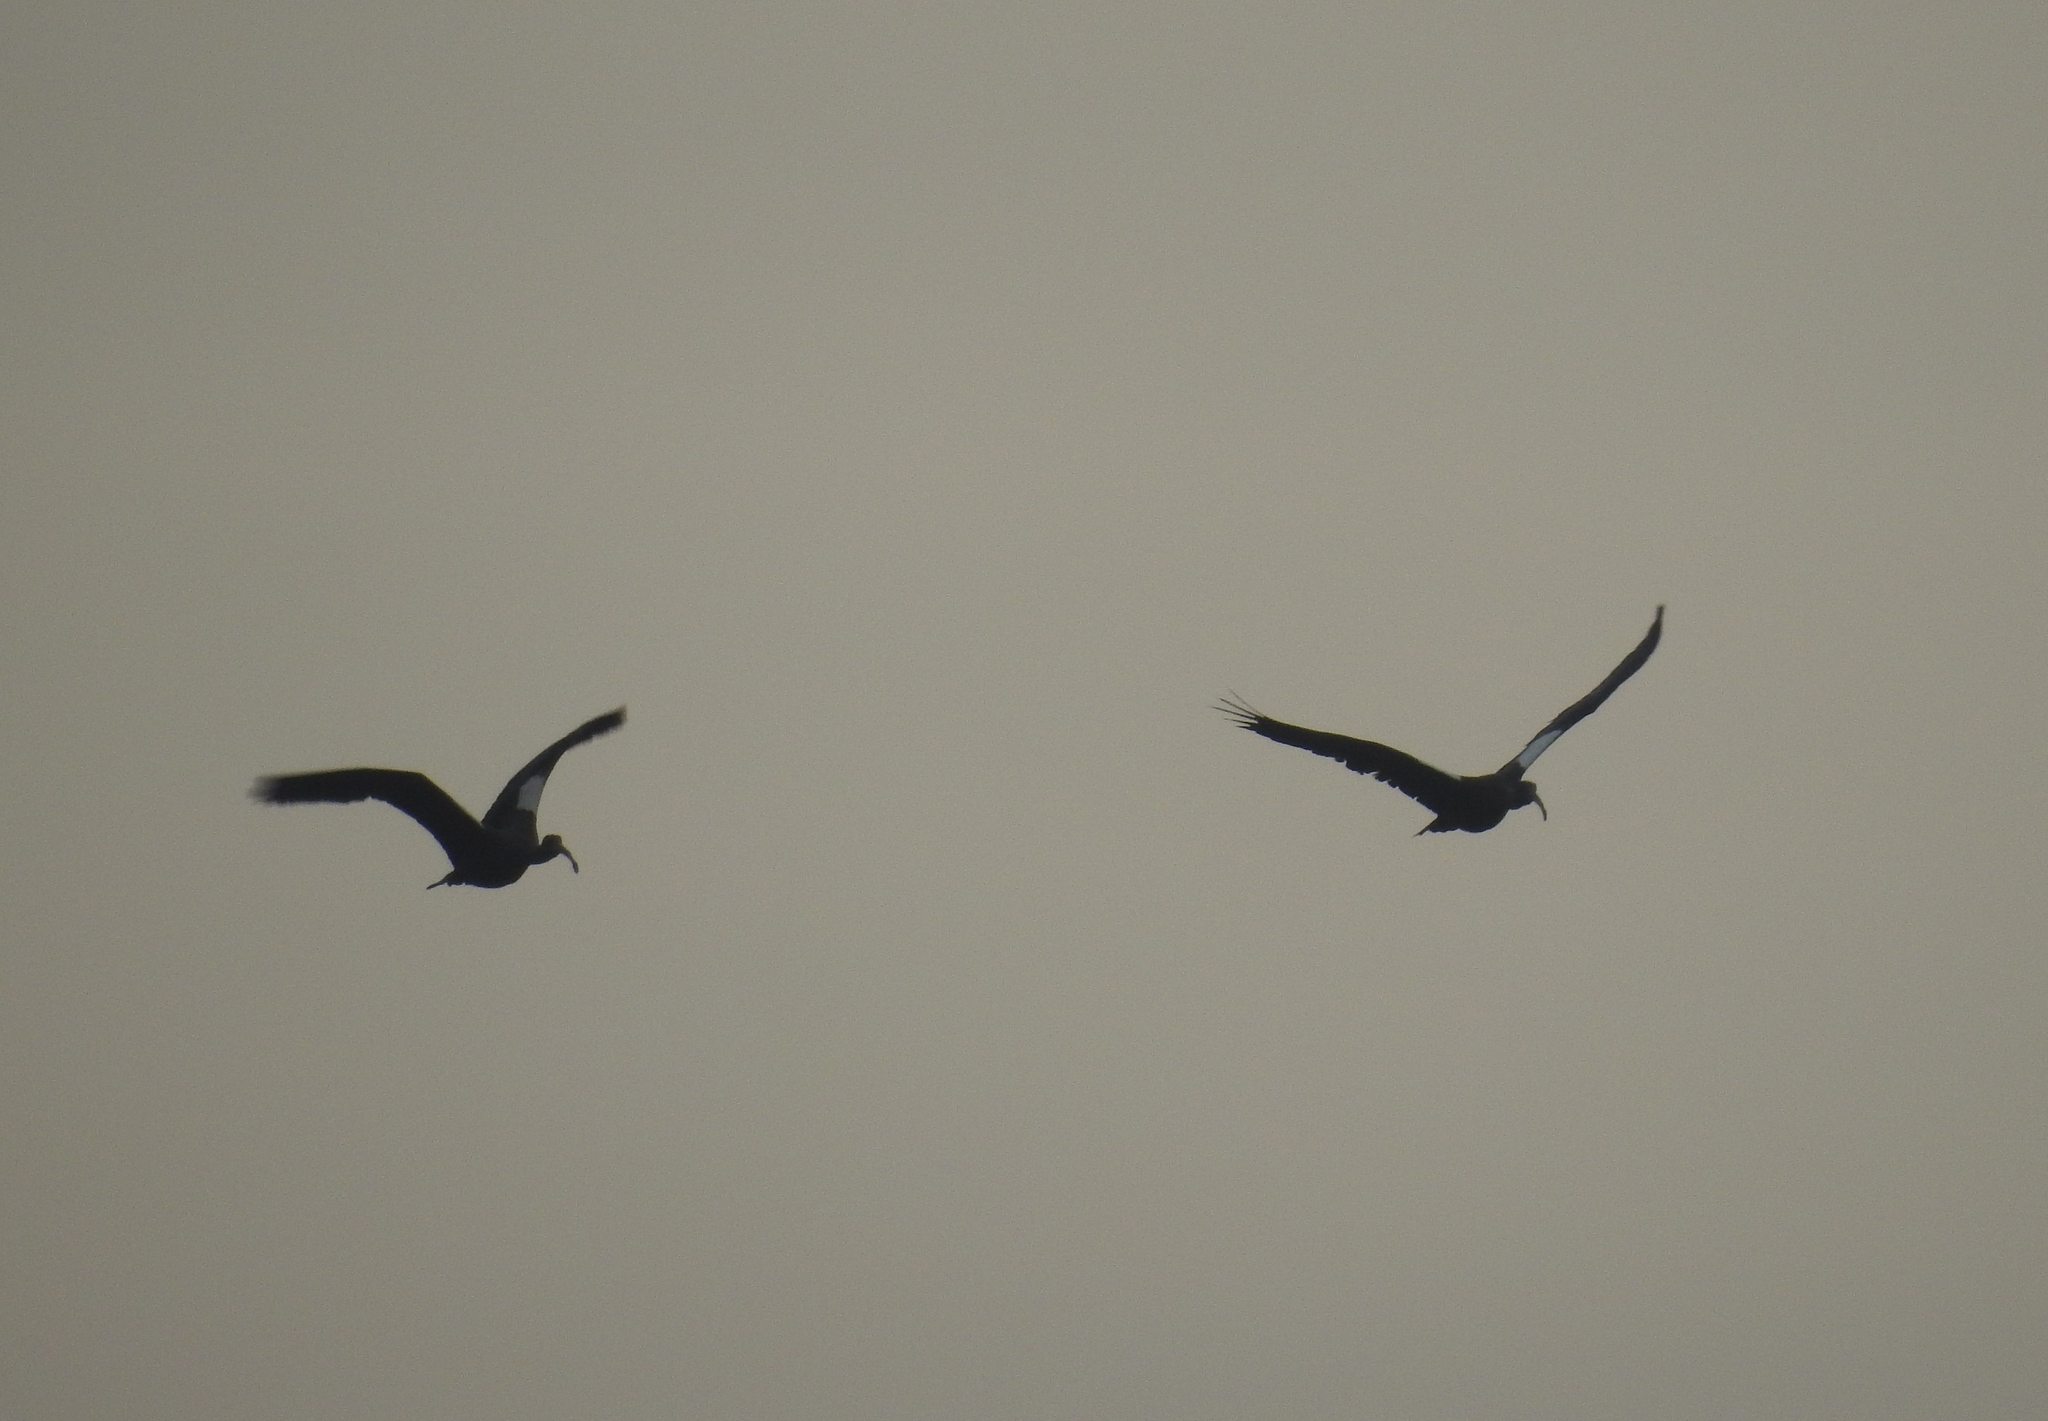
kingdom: Animalia
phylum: Chordata
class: Aves
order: Pelecaniformes
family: Threskiornithidae
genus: Pseudibis
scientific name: Pseudibis papillosa
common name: Red-naped ibis
